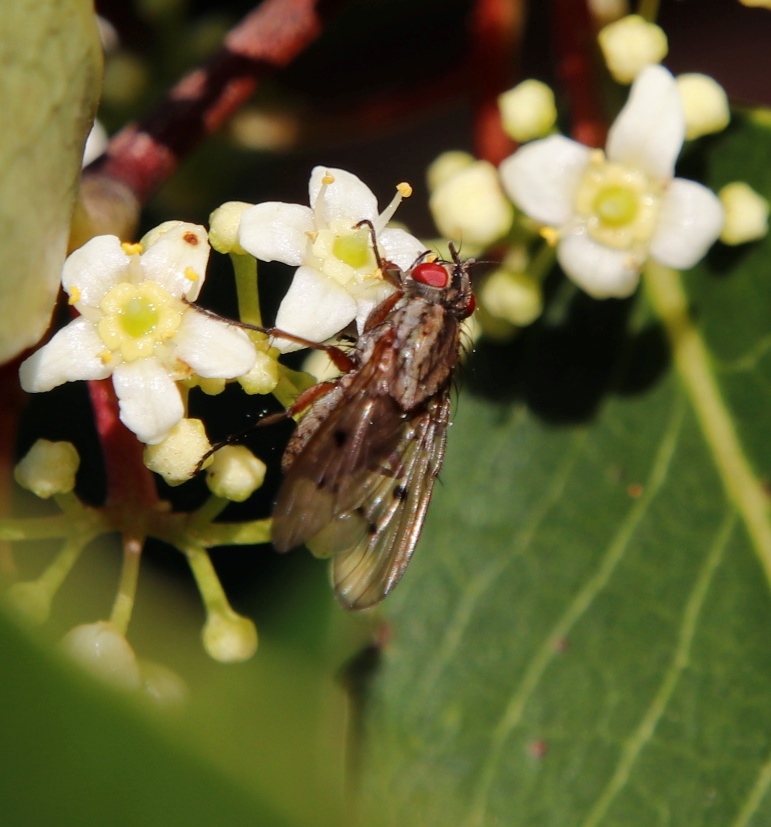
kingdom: Plantae
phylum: Tracheophyta
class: Magnoliopsida
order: Celastrales
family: Celastraceae
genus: Cassine
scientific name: Cassine peragua
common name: Cape saffron
